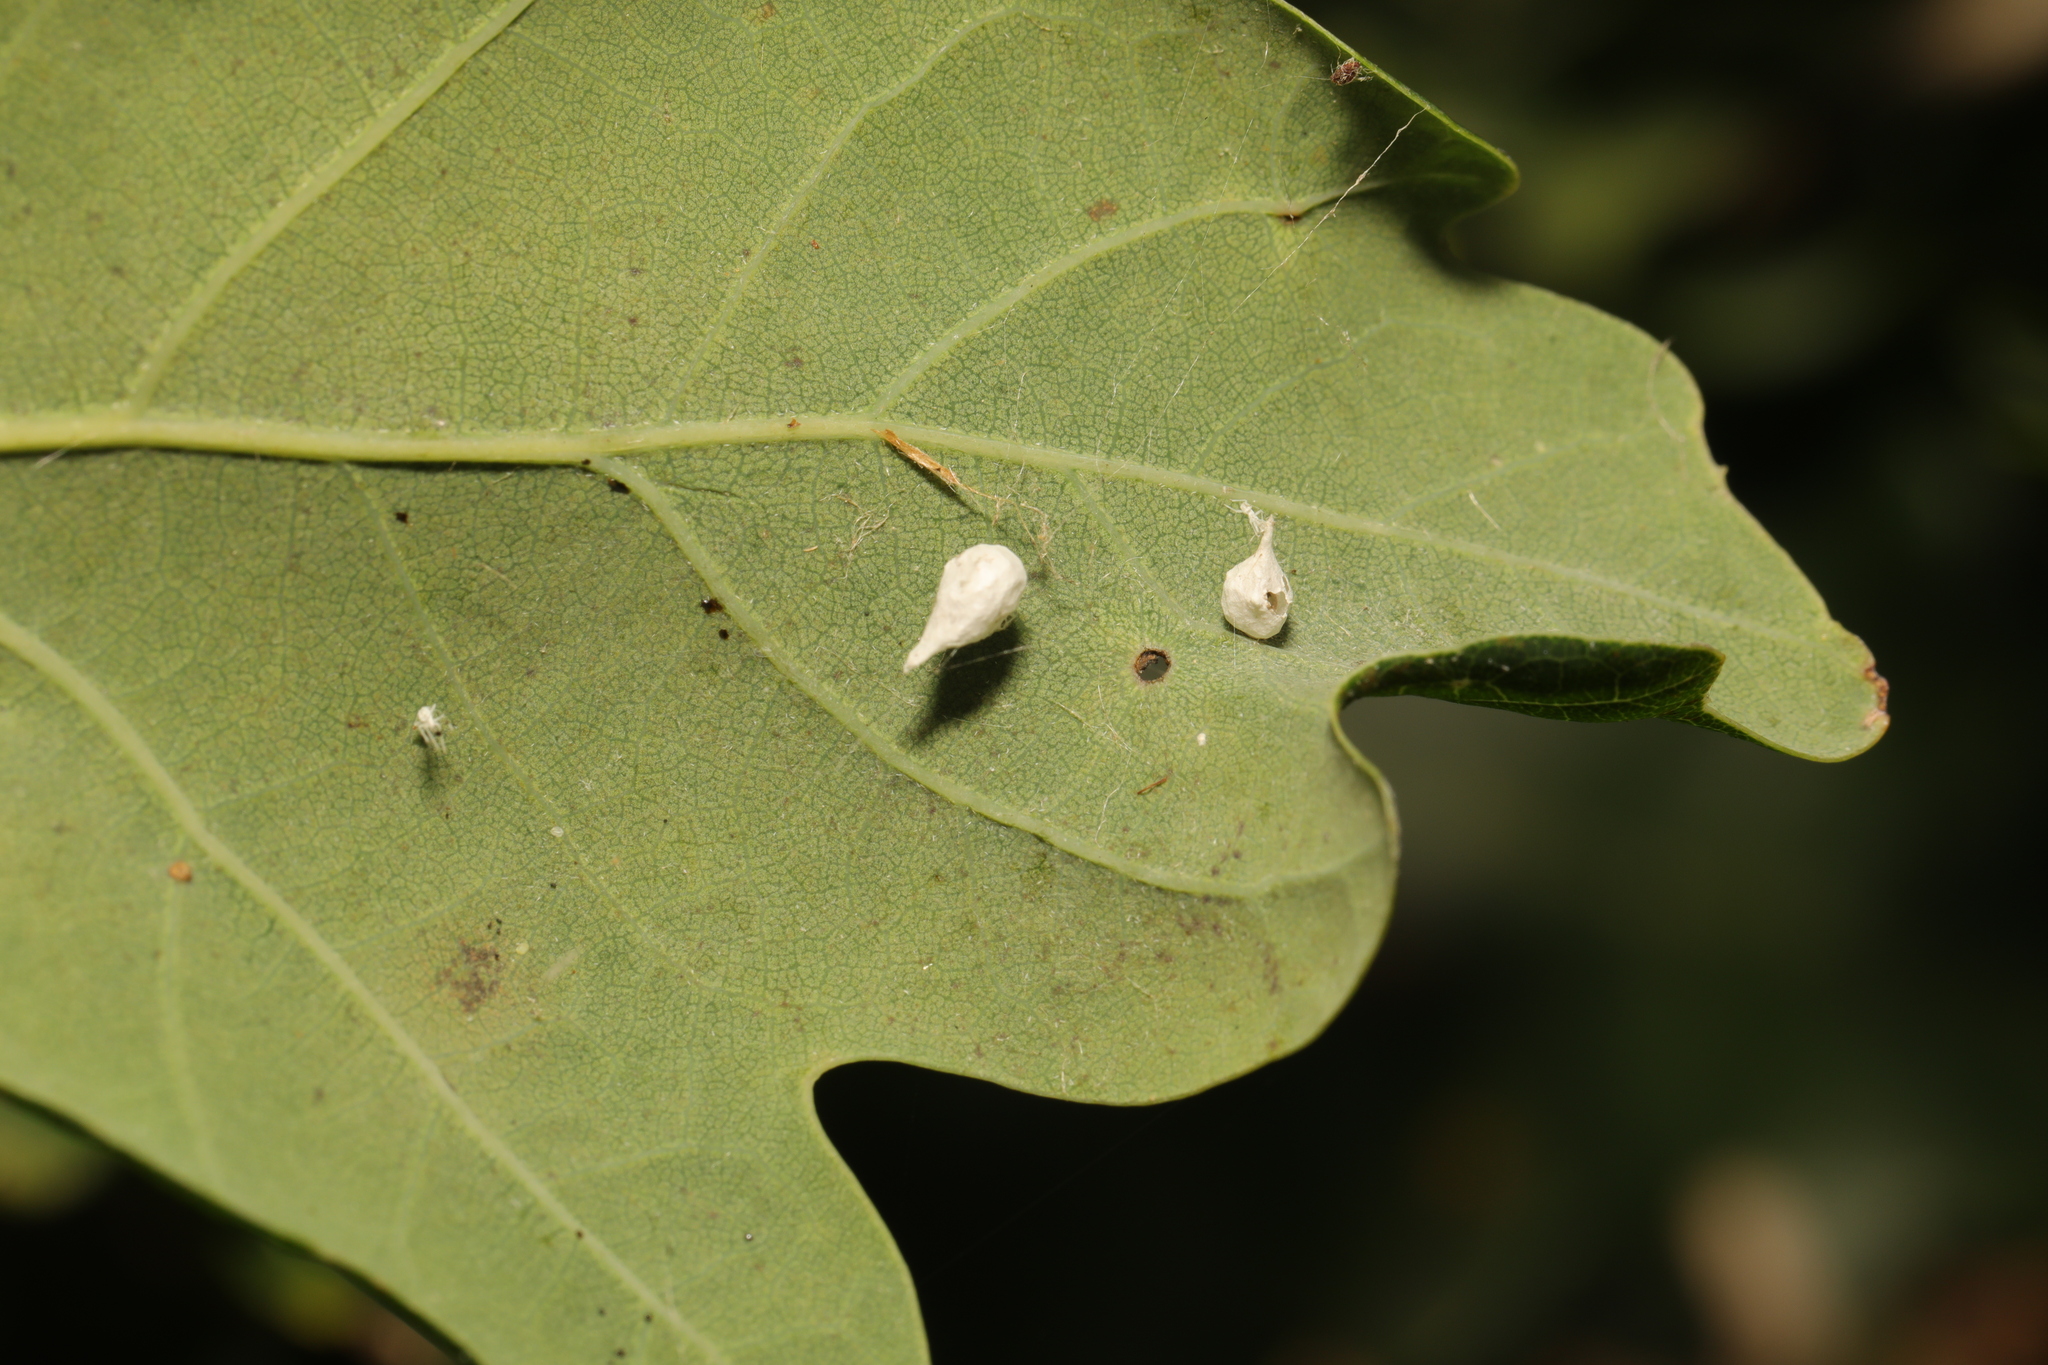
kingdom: Animalia
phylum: Arthropoda
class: Arachnida
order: Araneae
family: Theridiidae
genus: Paidiscura
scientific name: Paidiscura pallens
